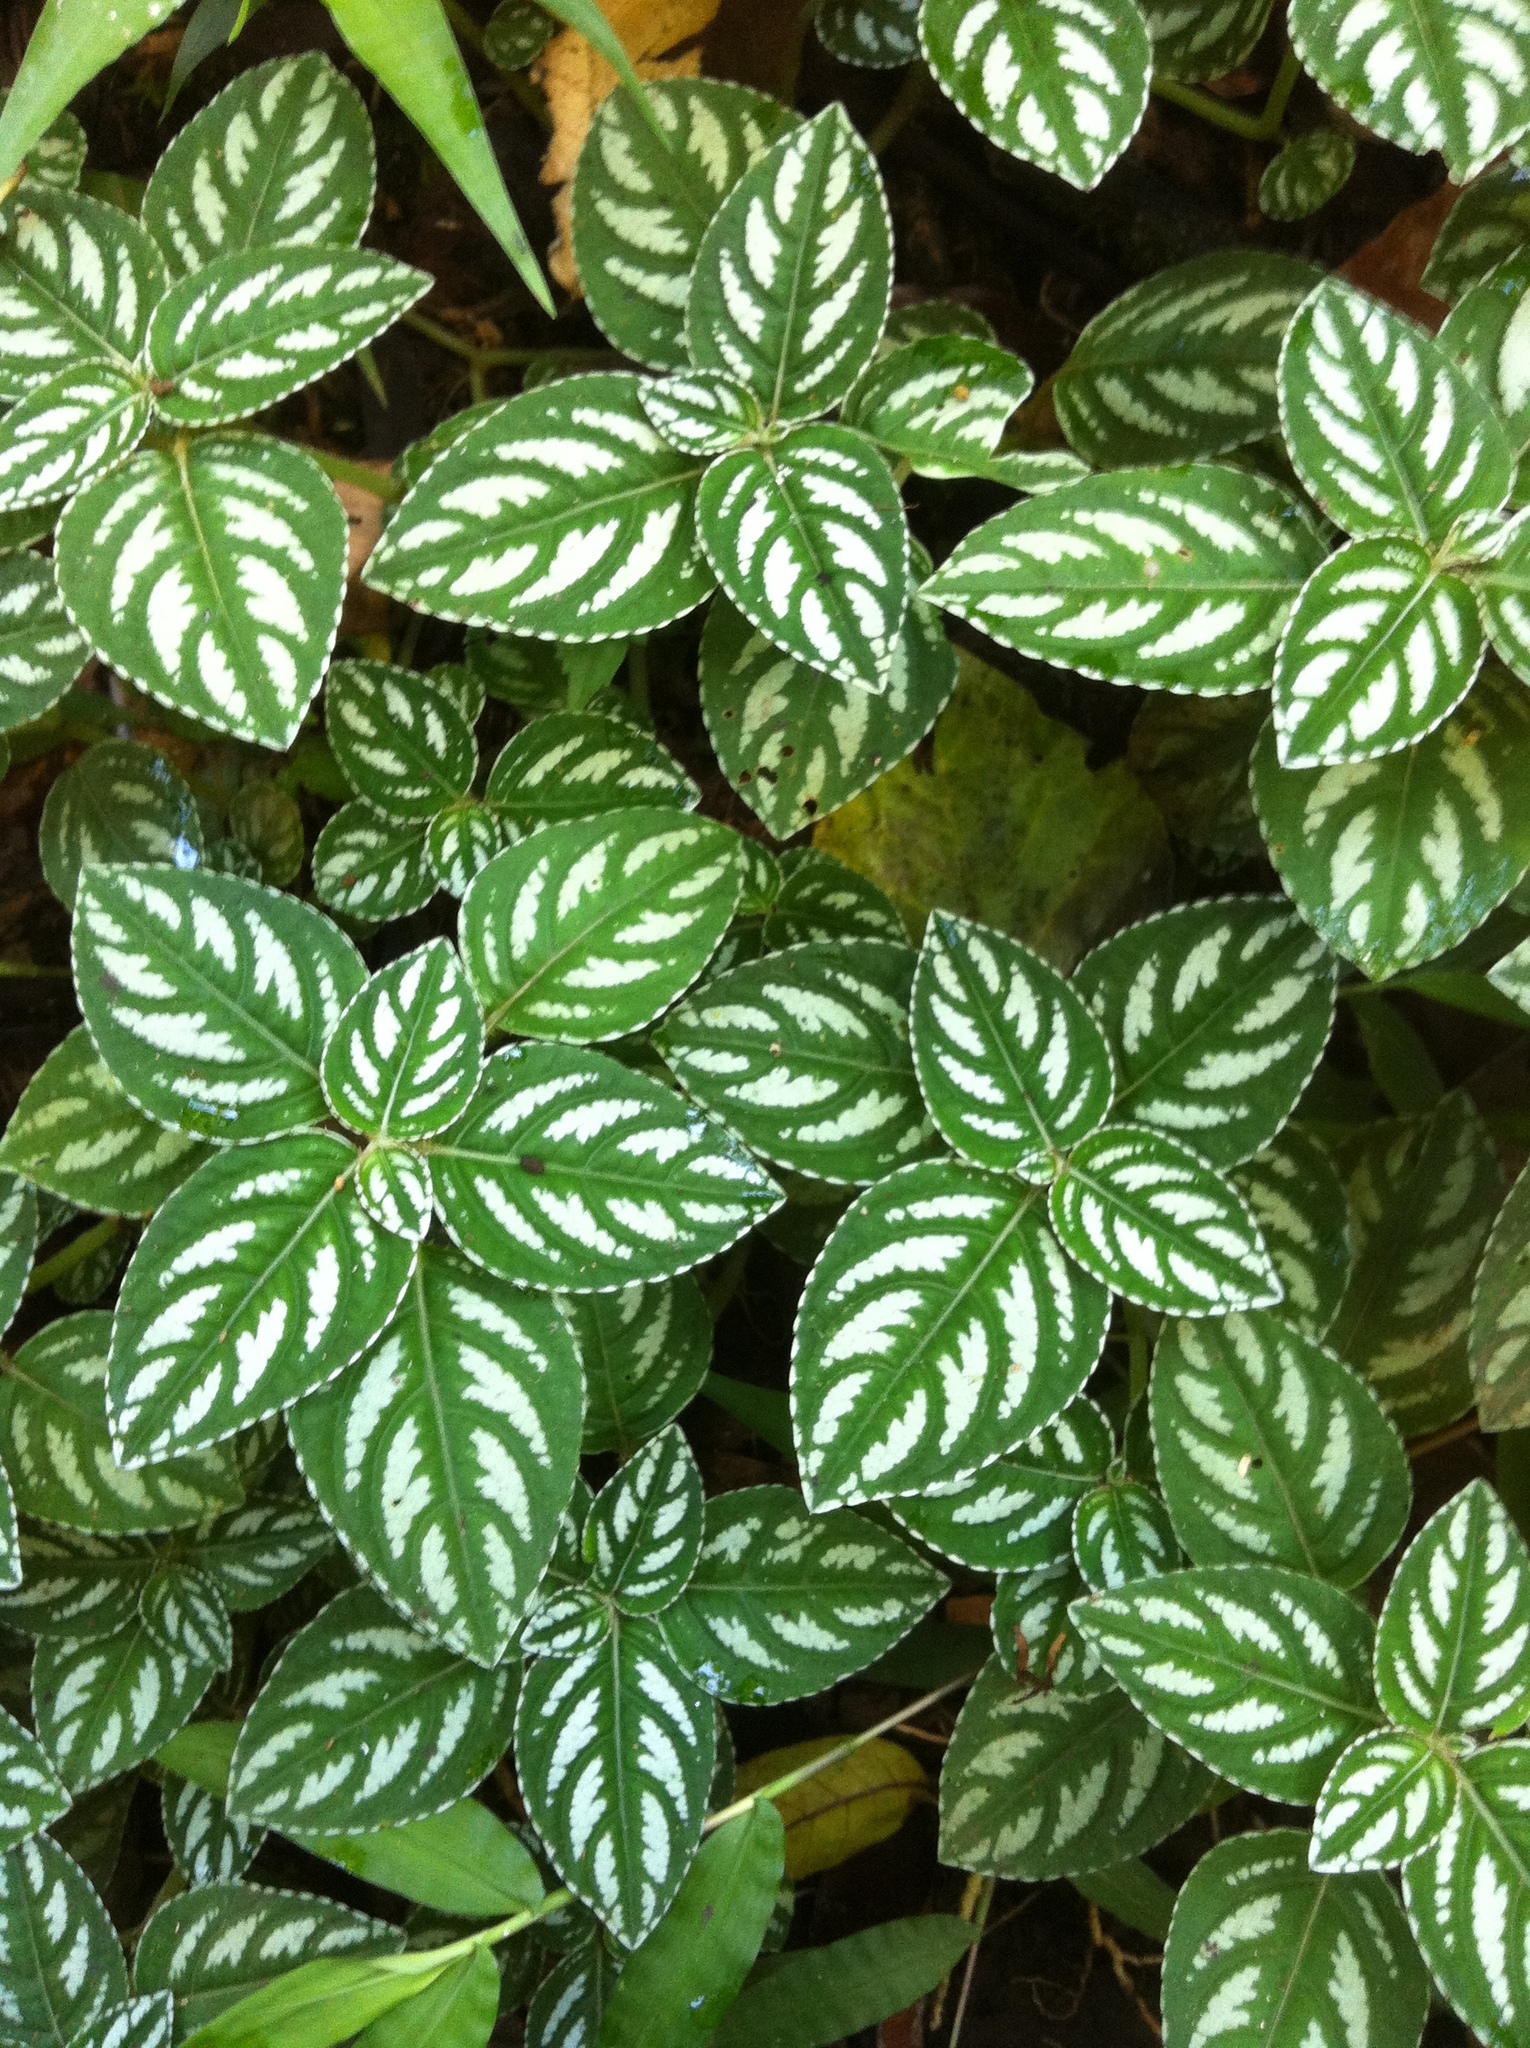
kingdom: Plantae
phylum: Tracheophyta
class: Magnoliopsida
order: Ericales
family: Balsaminaceae
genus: Impatiens
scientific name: Impatiens marianae
